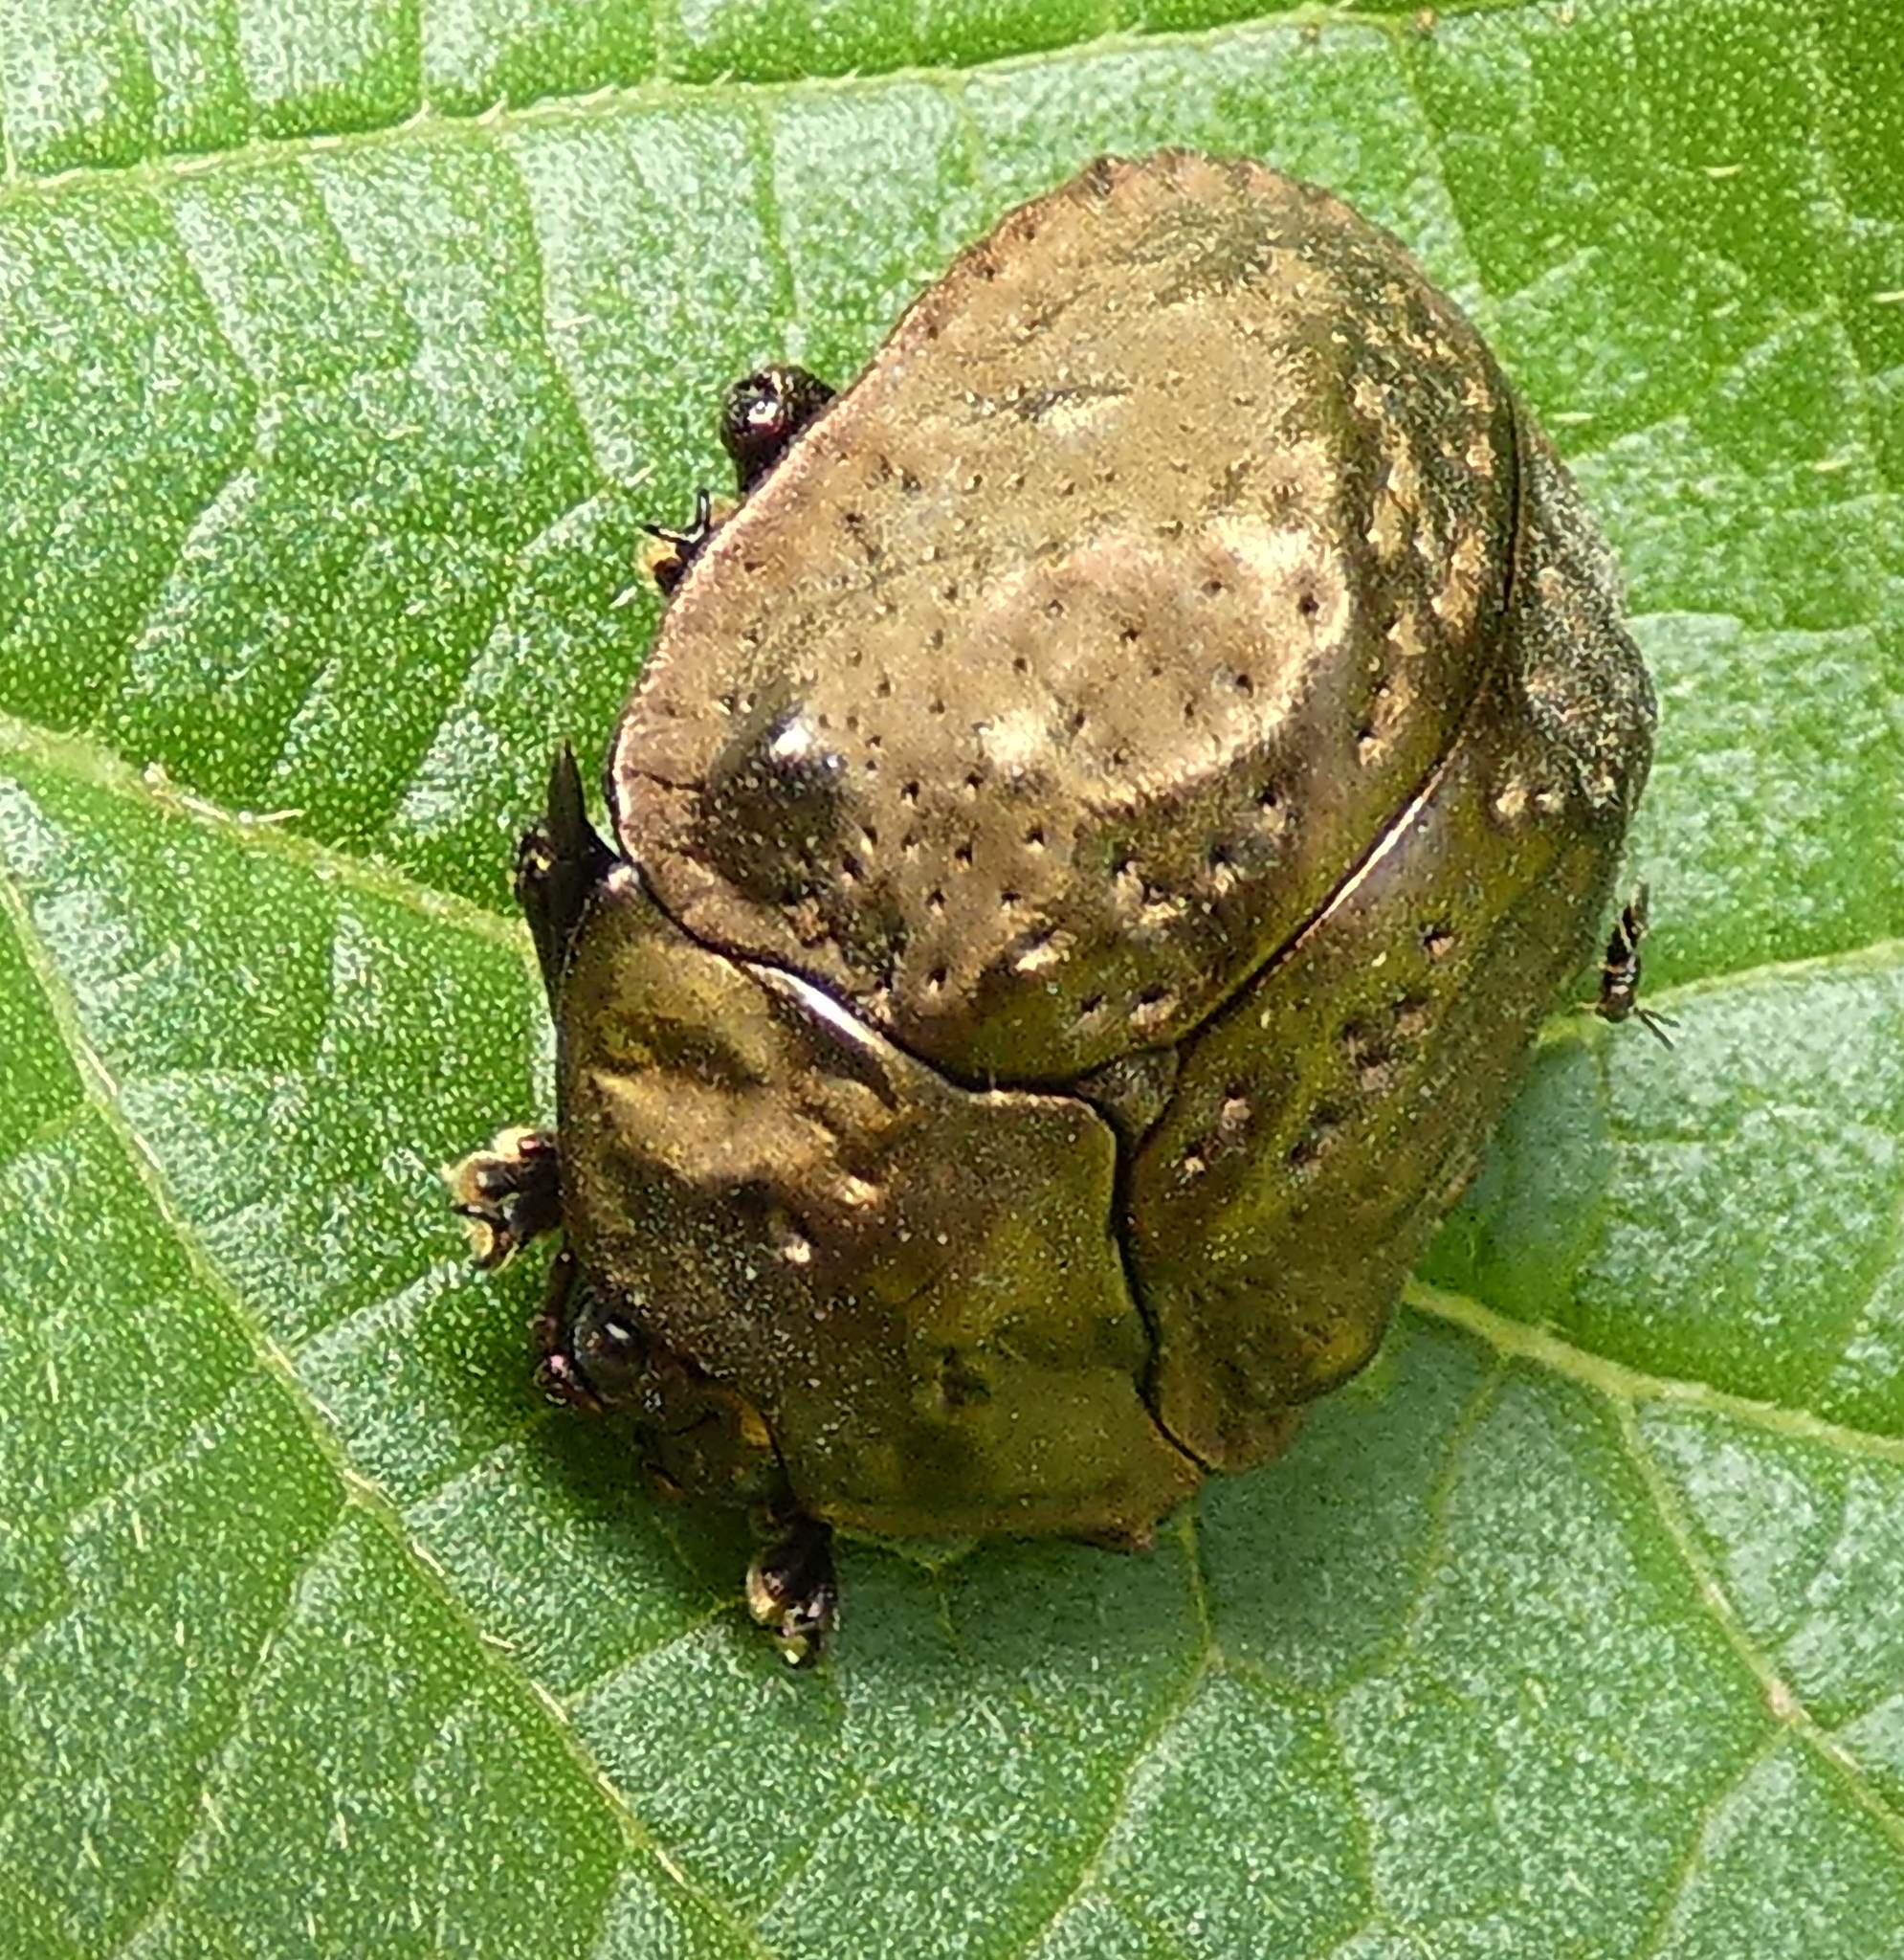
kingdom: Animalia
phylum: Arthropoda
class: Insecta
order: Coleoptera
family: Chrysomelidae
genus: Polychalca
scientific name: Polychalca aerea
